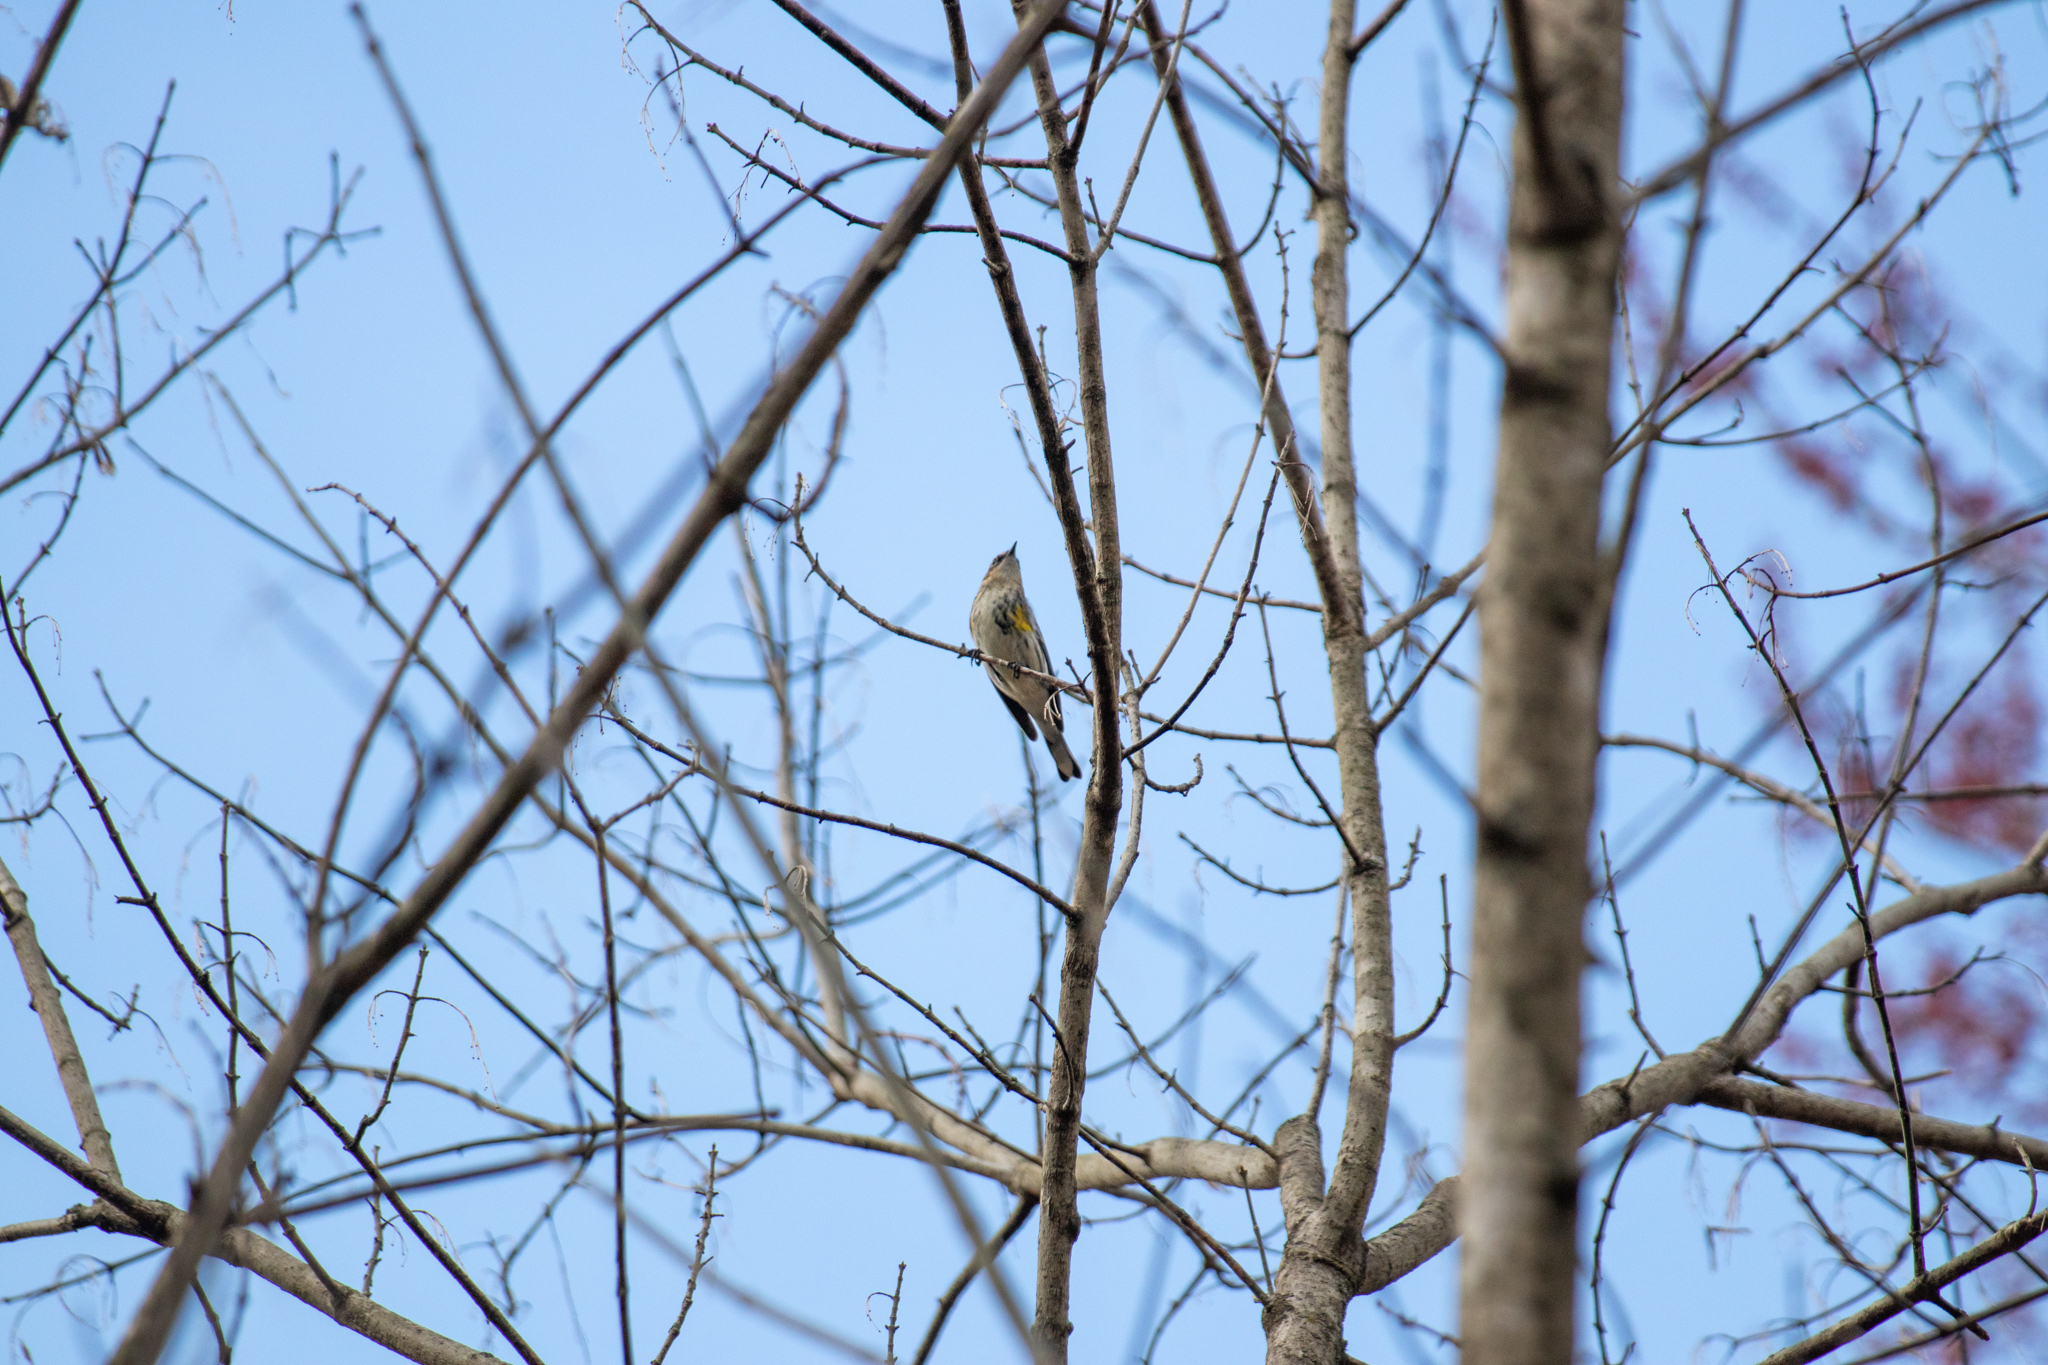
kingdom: Animalia
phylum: Chordata
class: Aves
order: Passeriformes
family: Parulidae
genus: Setophaga
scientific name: Setophaga coronata
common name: Myrtle warbler
